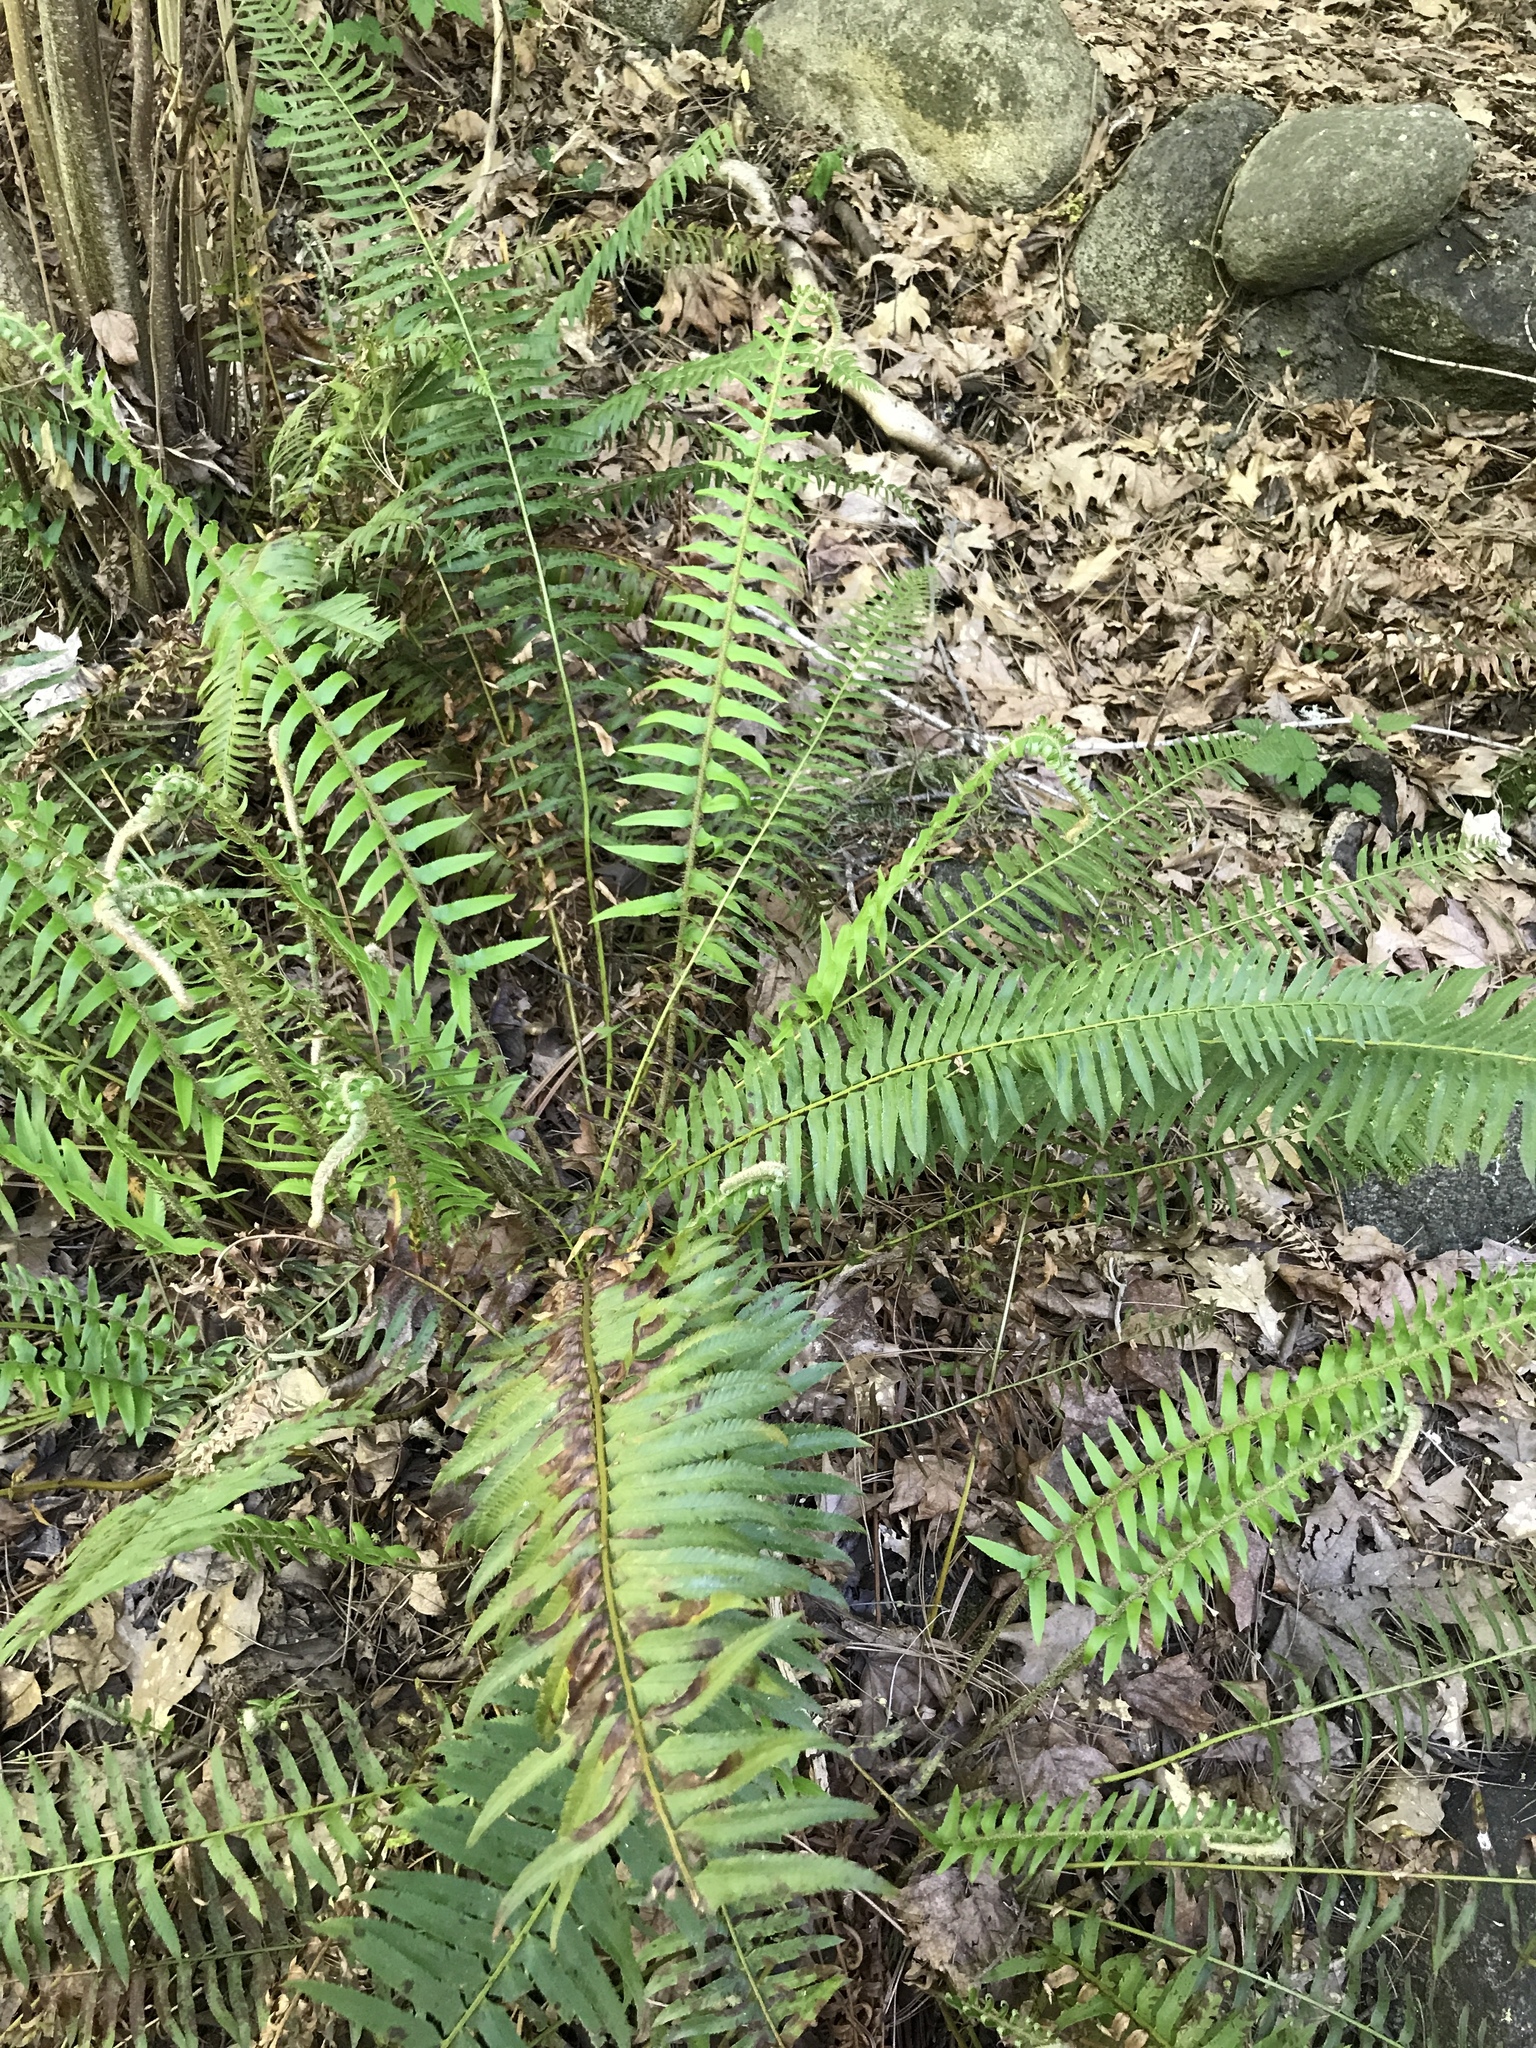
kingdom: Plantae
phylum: Tracheophyta
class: Polypodiopsida
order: Polypodiales
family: Dryopteridaceae
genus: Polystichum
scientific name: Polystichum munitum
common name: Western sword-fern
